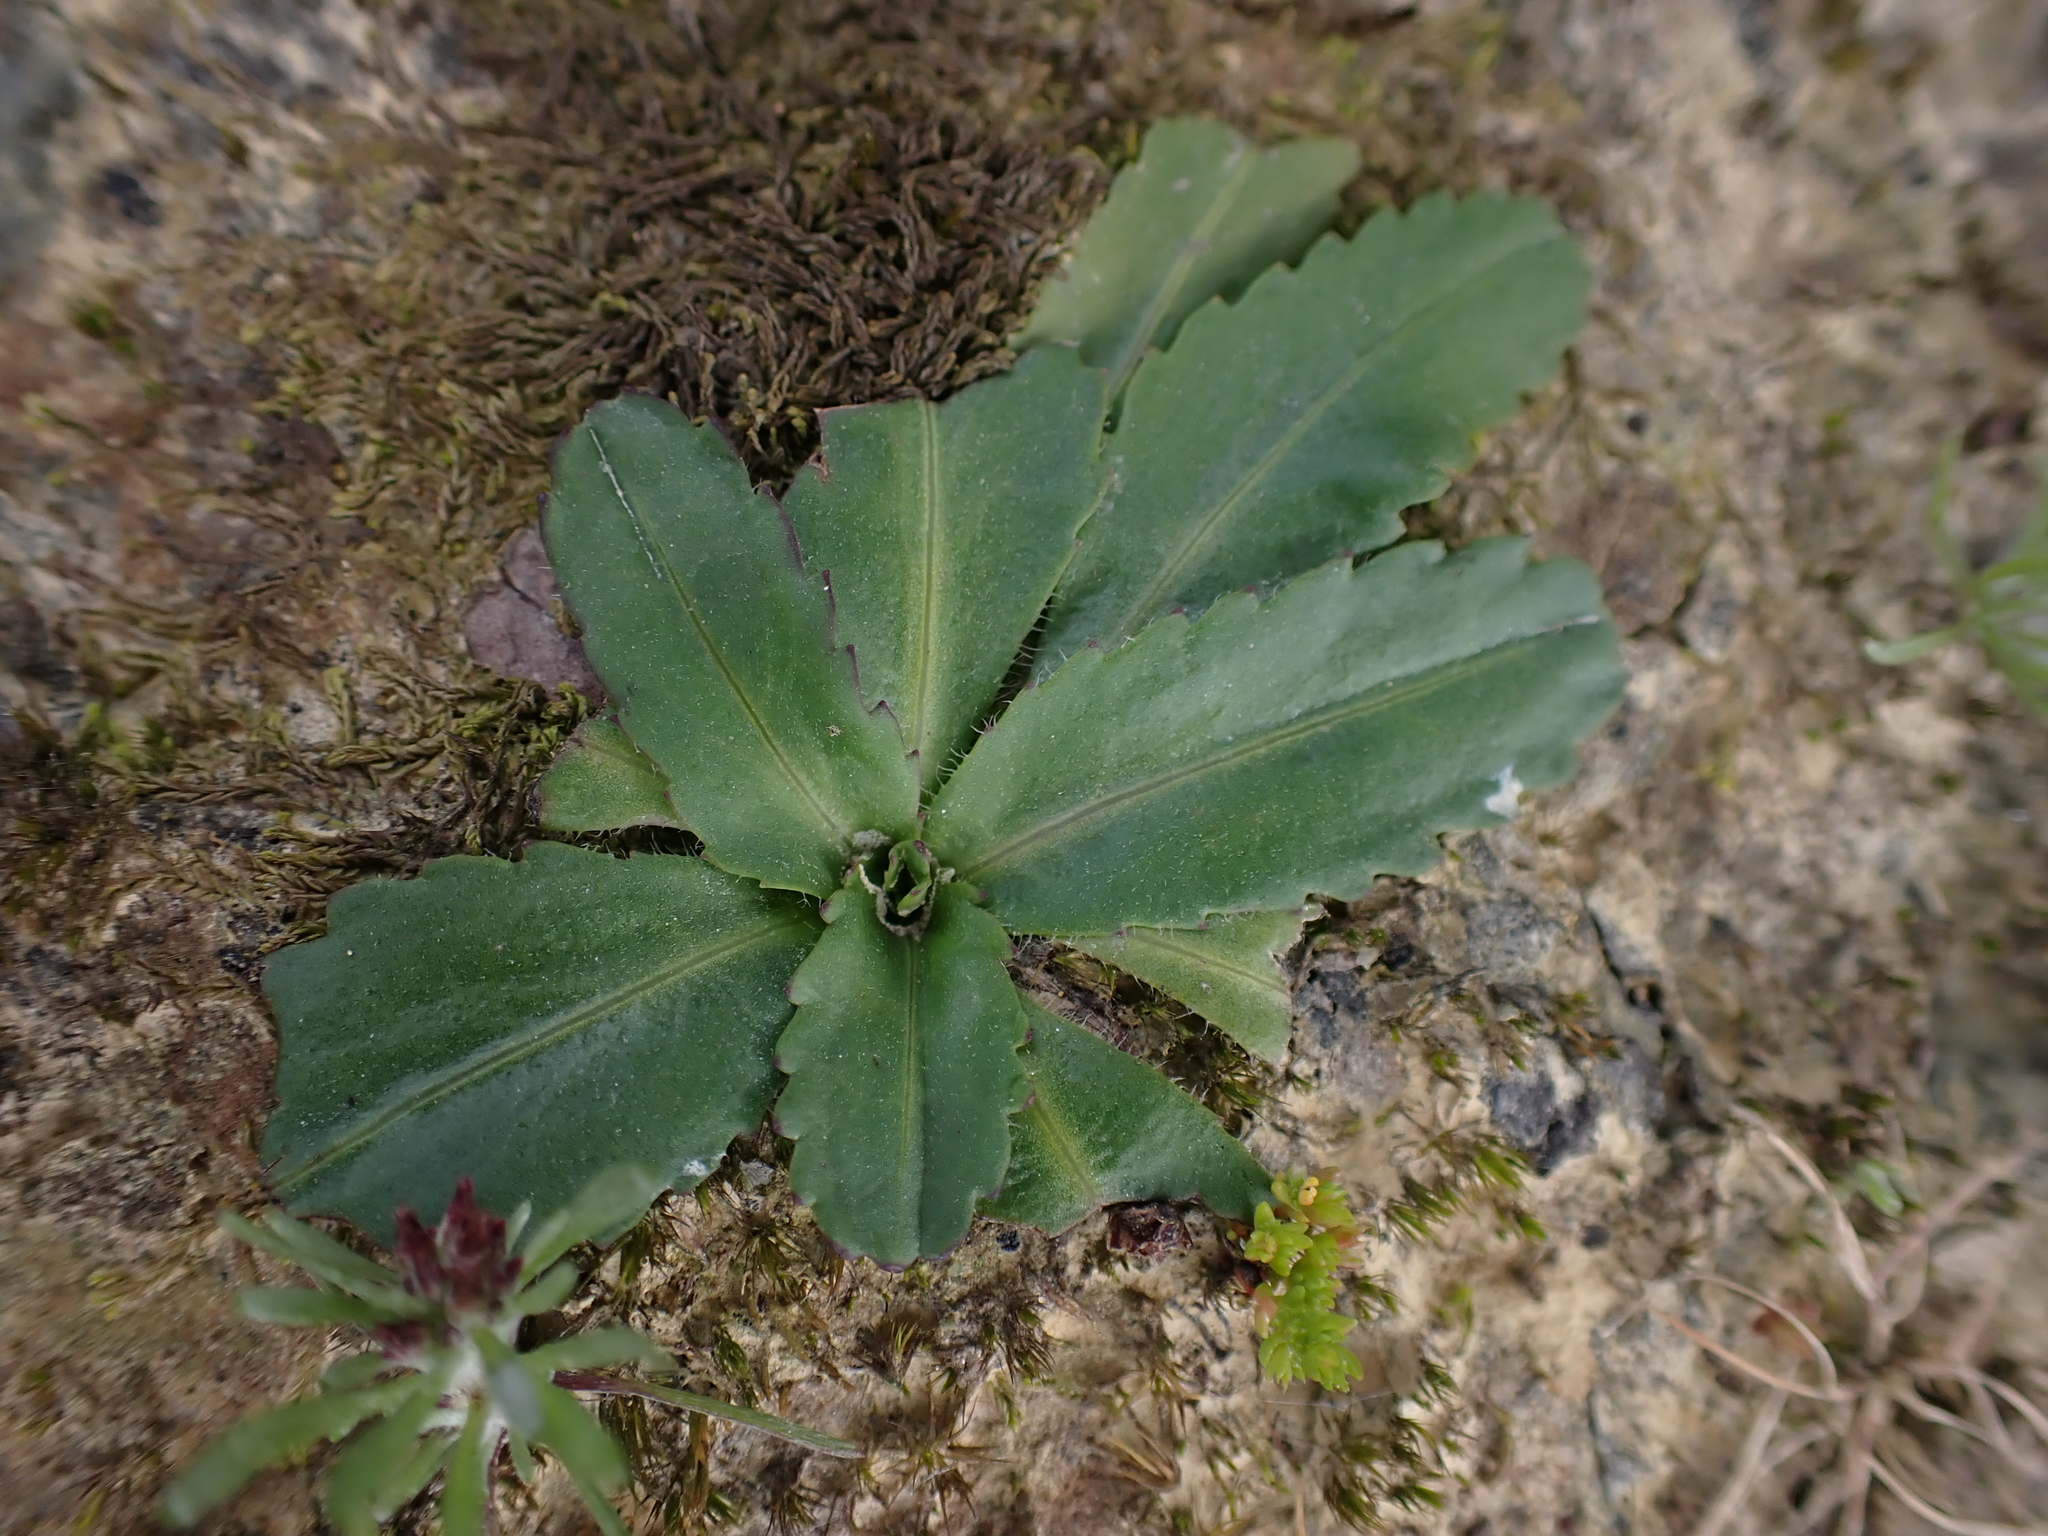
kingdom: Plantae
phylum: Tracheophyta
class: Magnoliopsida
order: Asterales
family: Asteraceae
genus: Solenogyne
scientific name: Solenogyne dominii
